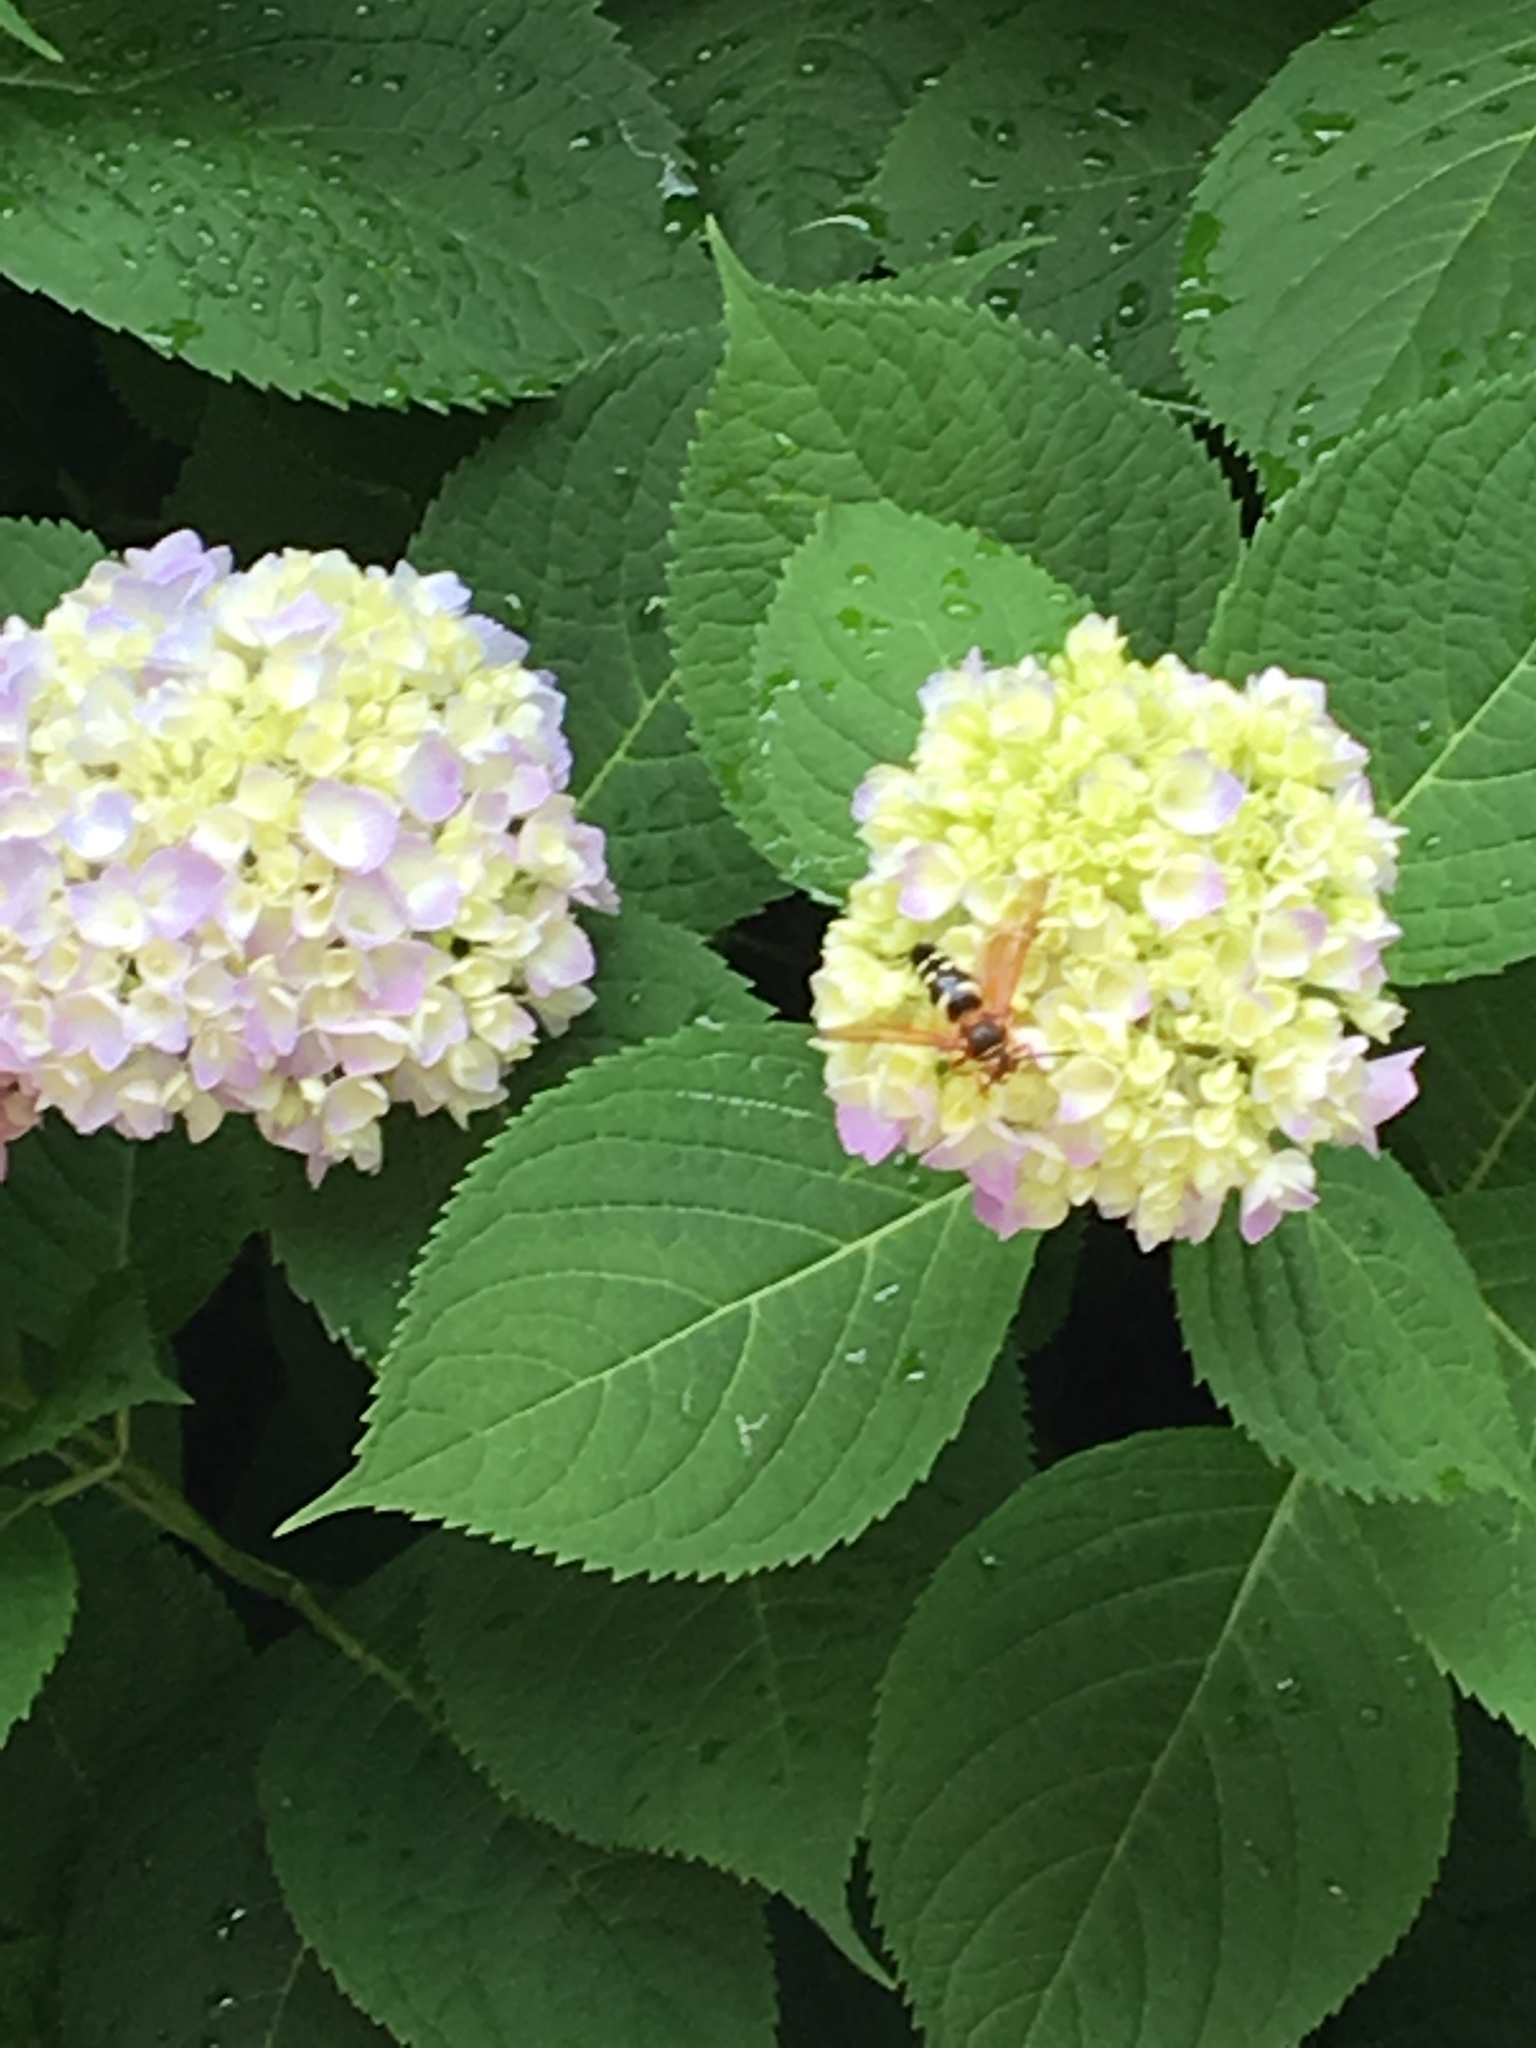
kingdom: Animalia
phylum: Arthropoda
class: Insecta
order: Hymenoptera
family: Crabronidae
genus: Sphecius
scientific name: Sphecius speciosus
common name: Cicada killer
